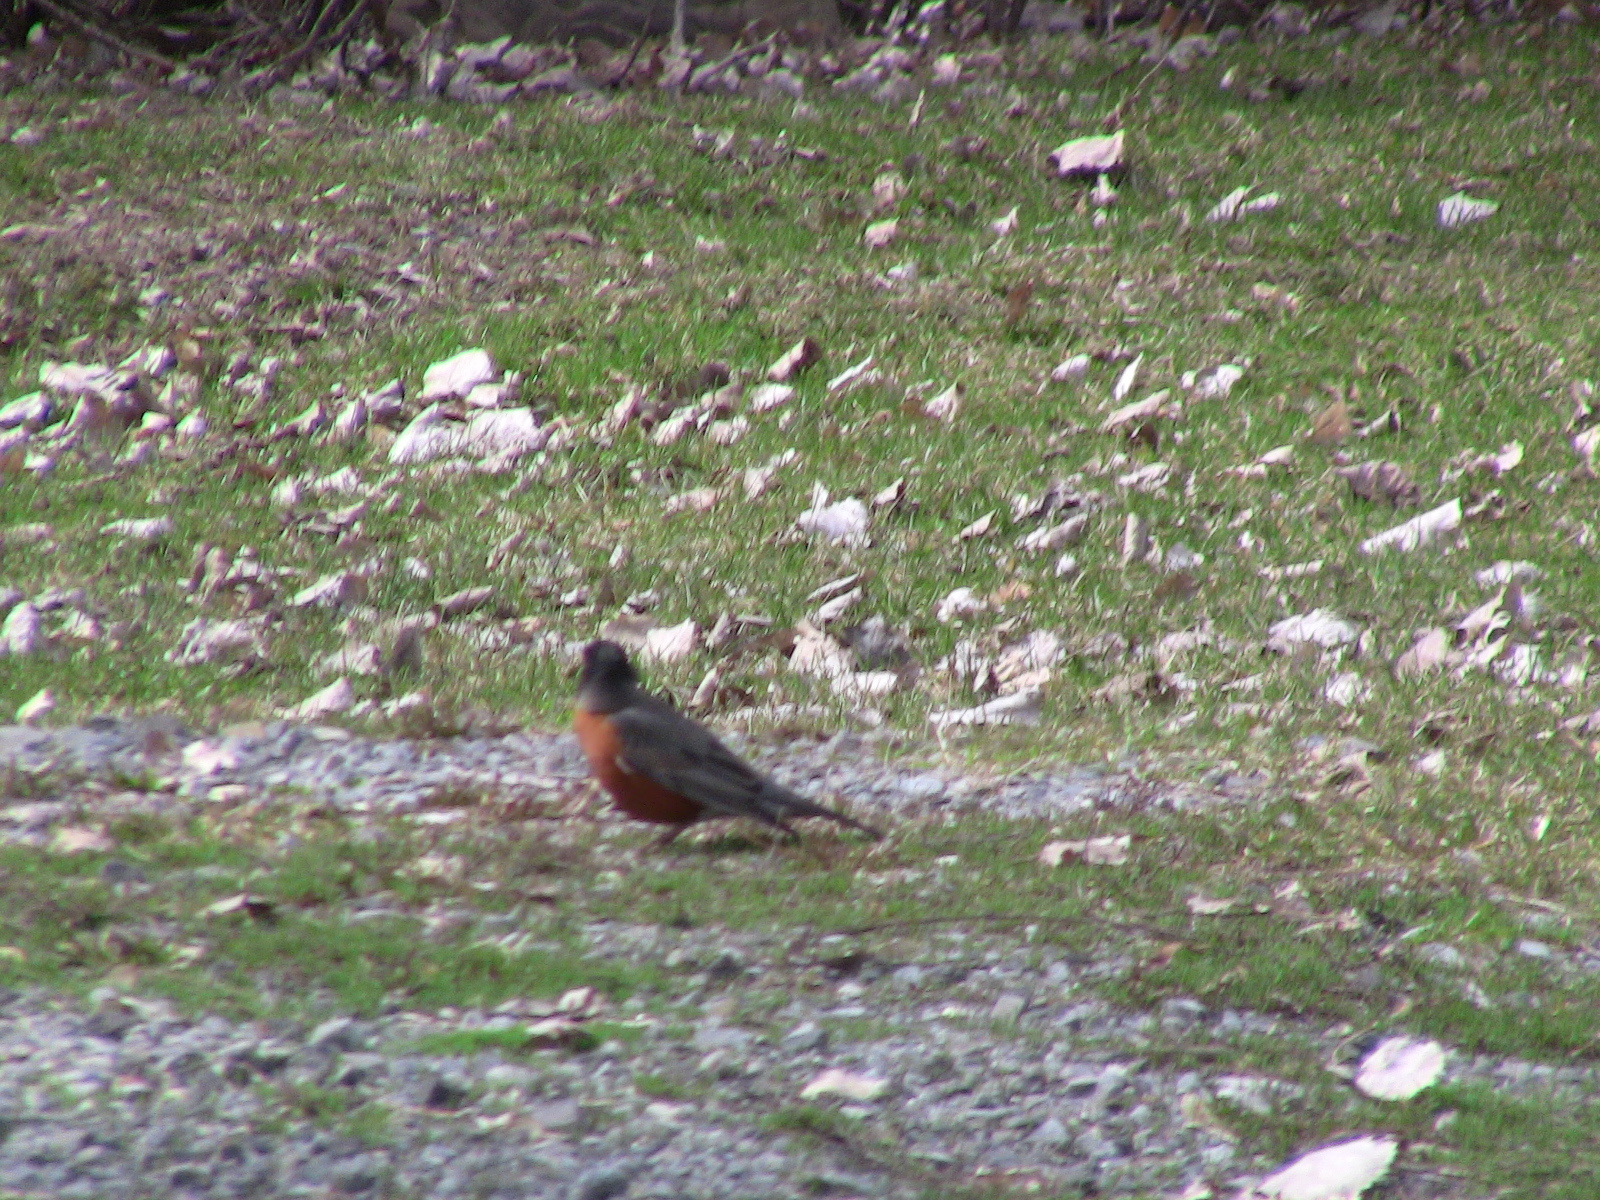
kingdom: Animalia
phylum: Chordata
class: Aves
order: Passeriformes
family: Turdidae
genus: Turdus
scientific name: Turdus migratorius
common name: American robin
